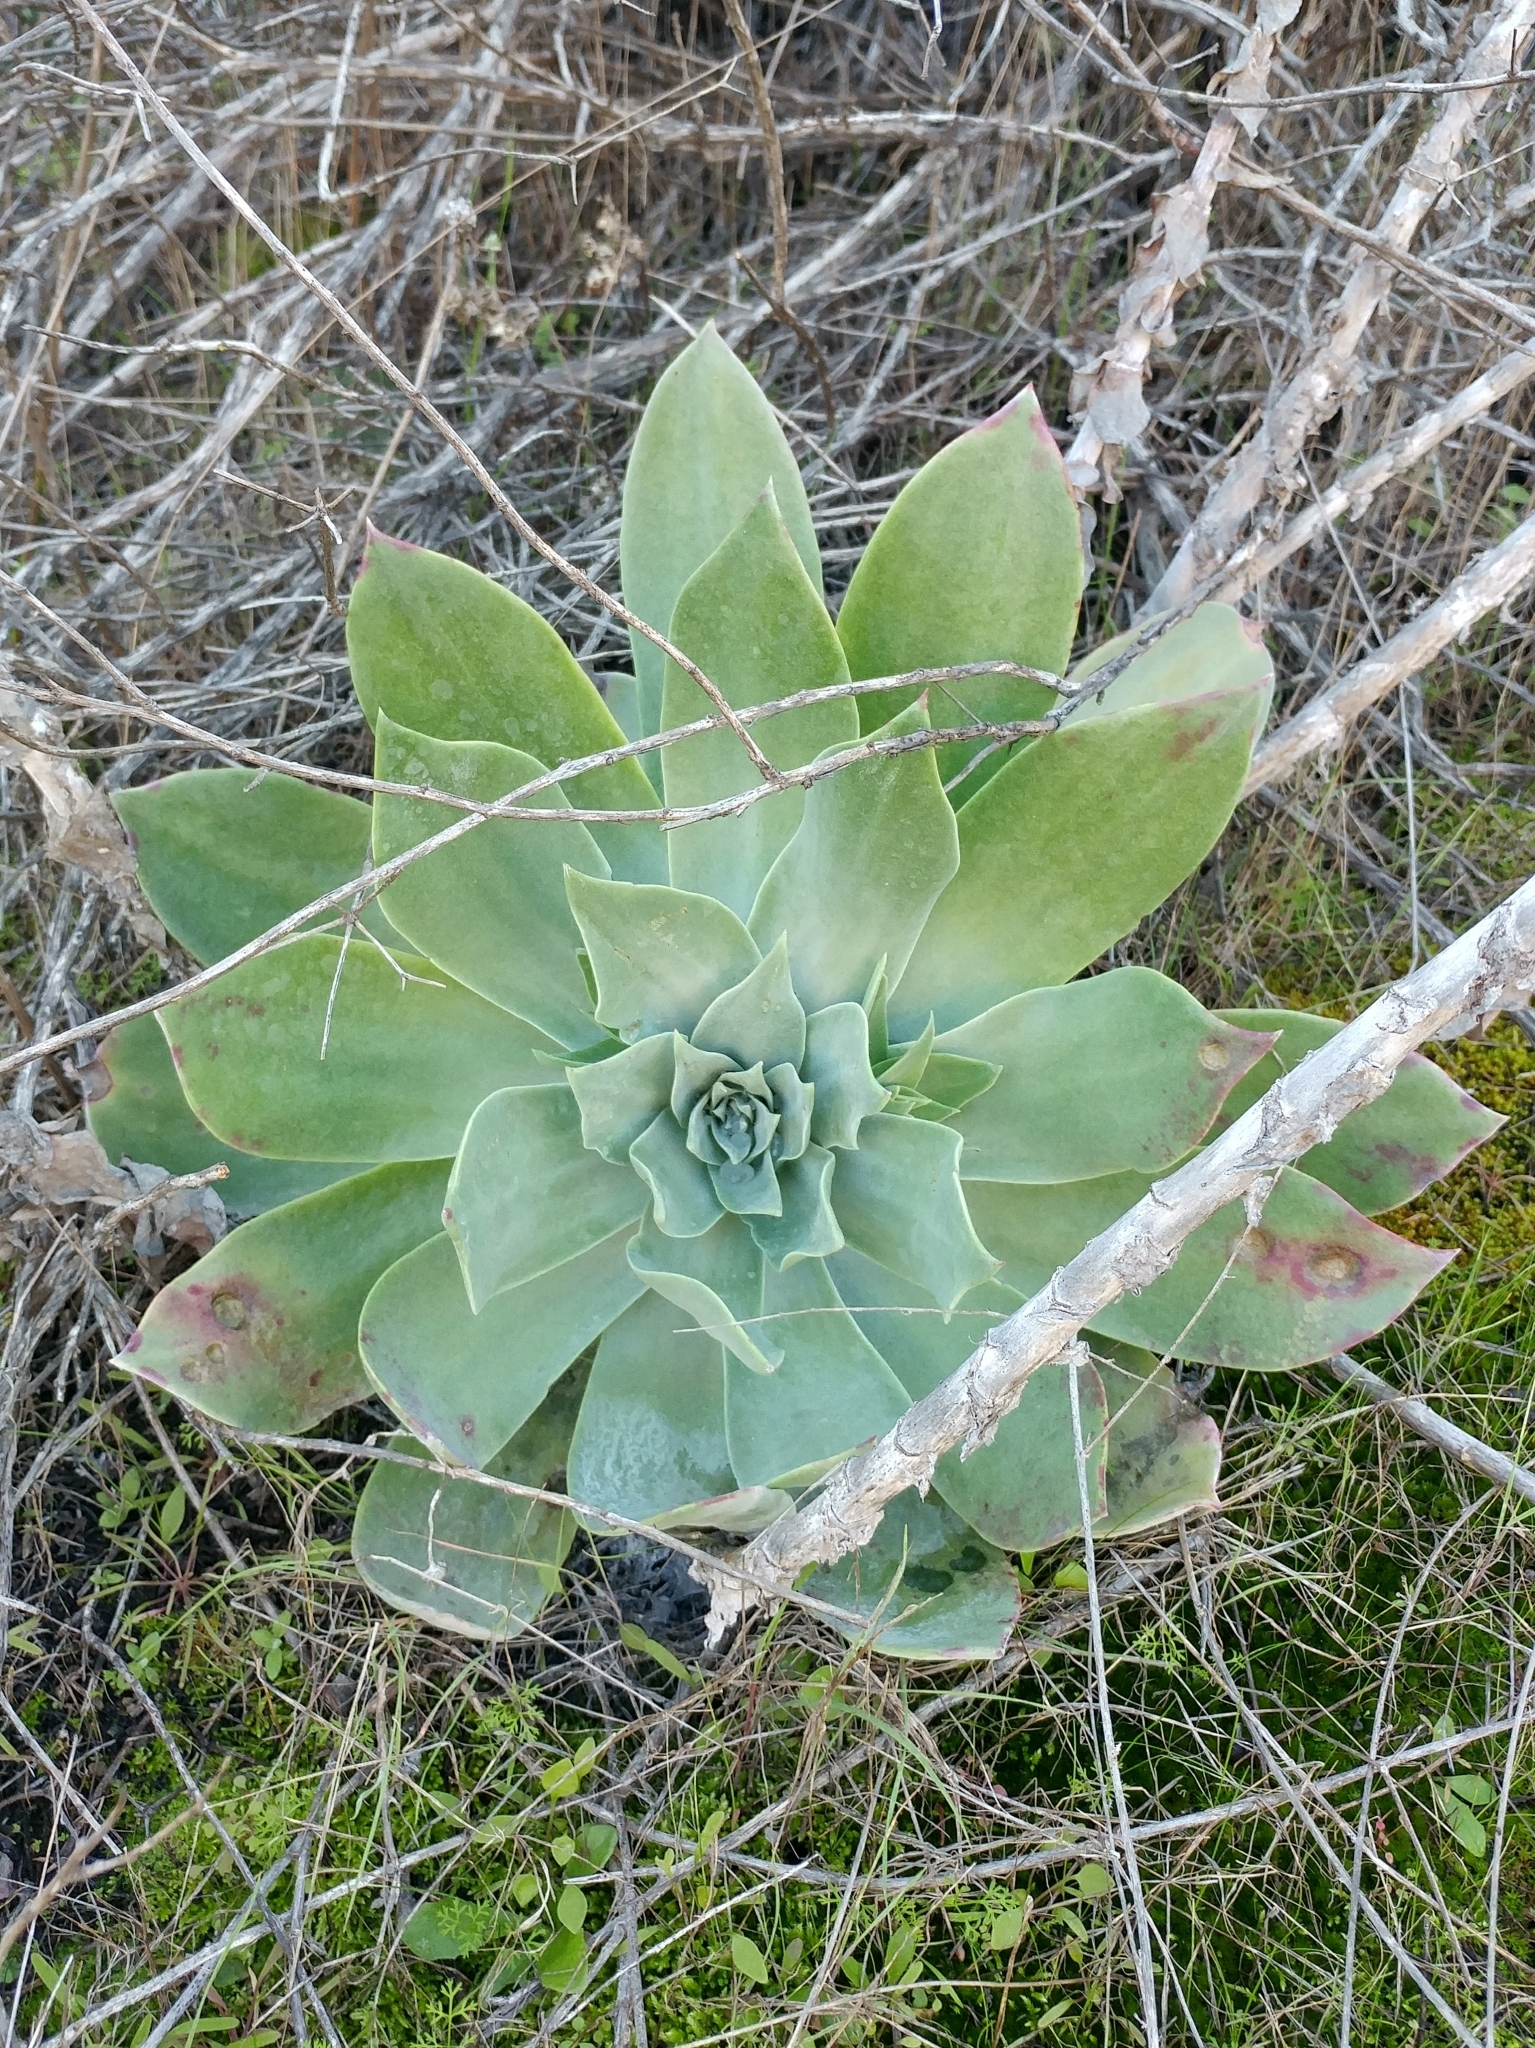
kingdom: Plantae
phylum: Tracheophyta
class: Magnoliopsida
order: Saxifragales
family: Crassulaceae
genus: Dudleya
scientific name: Dudleya pulverulenta
